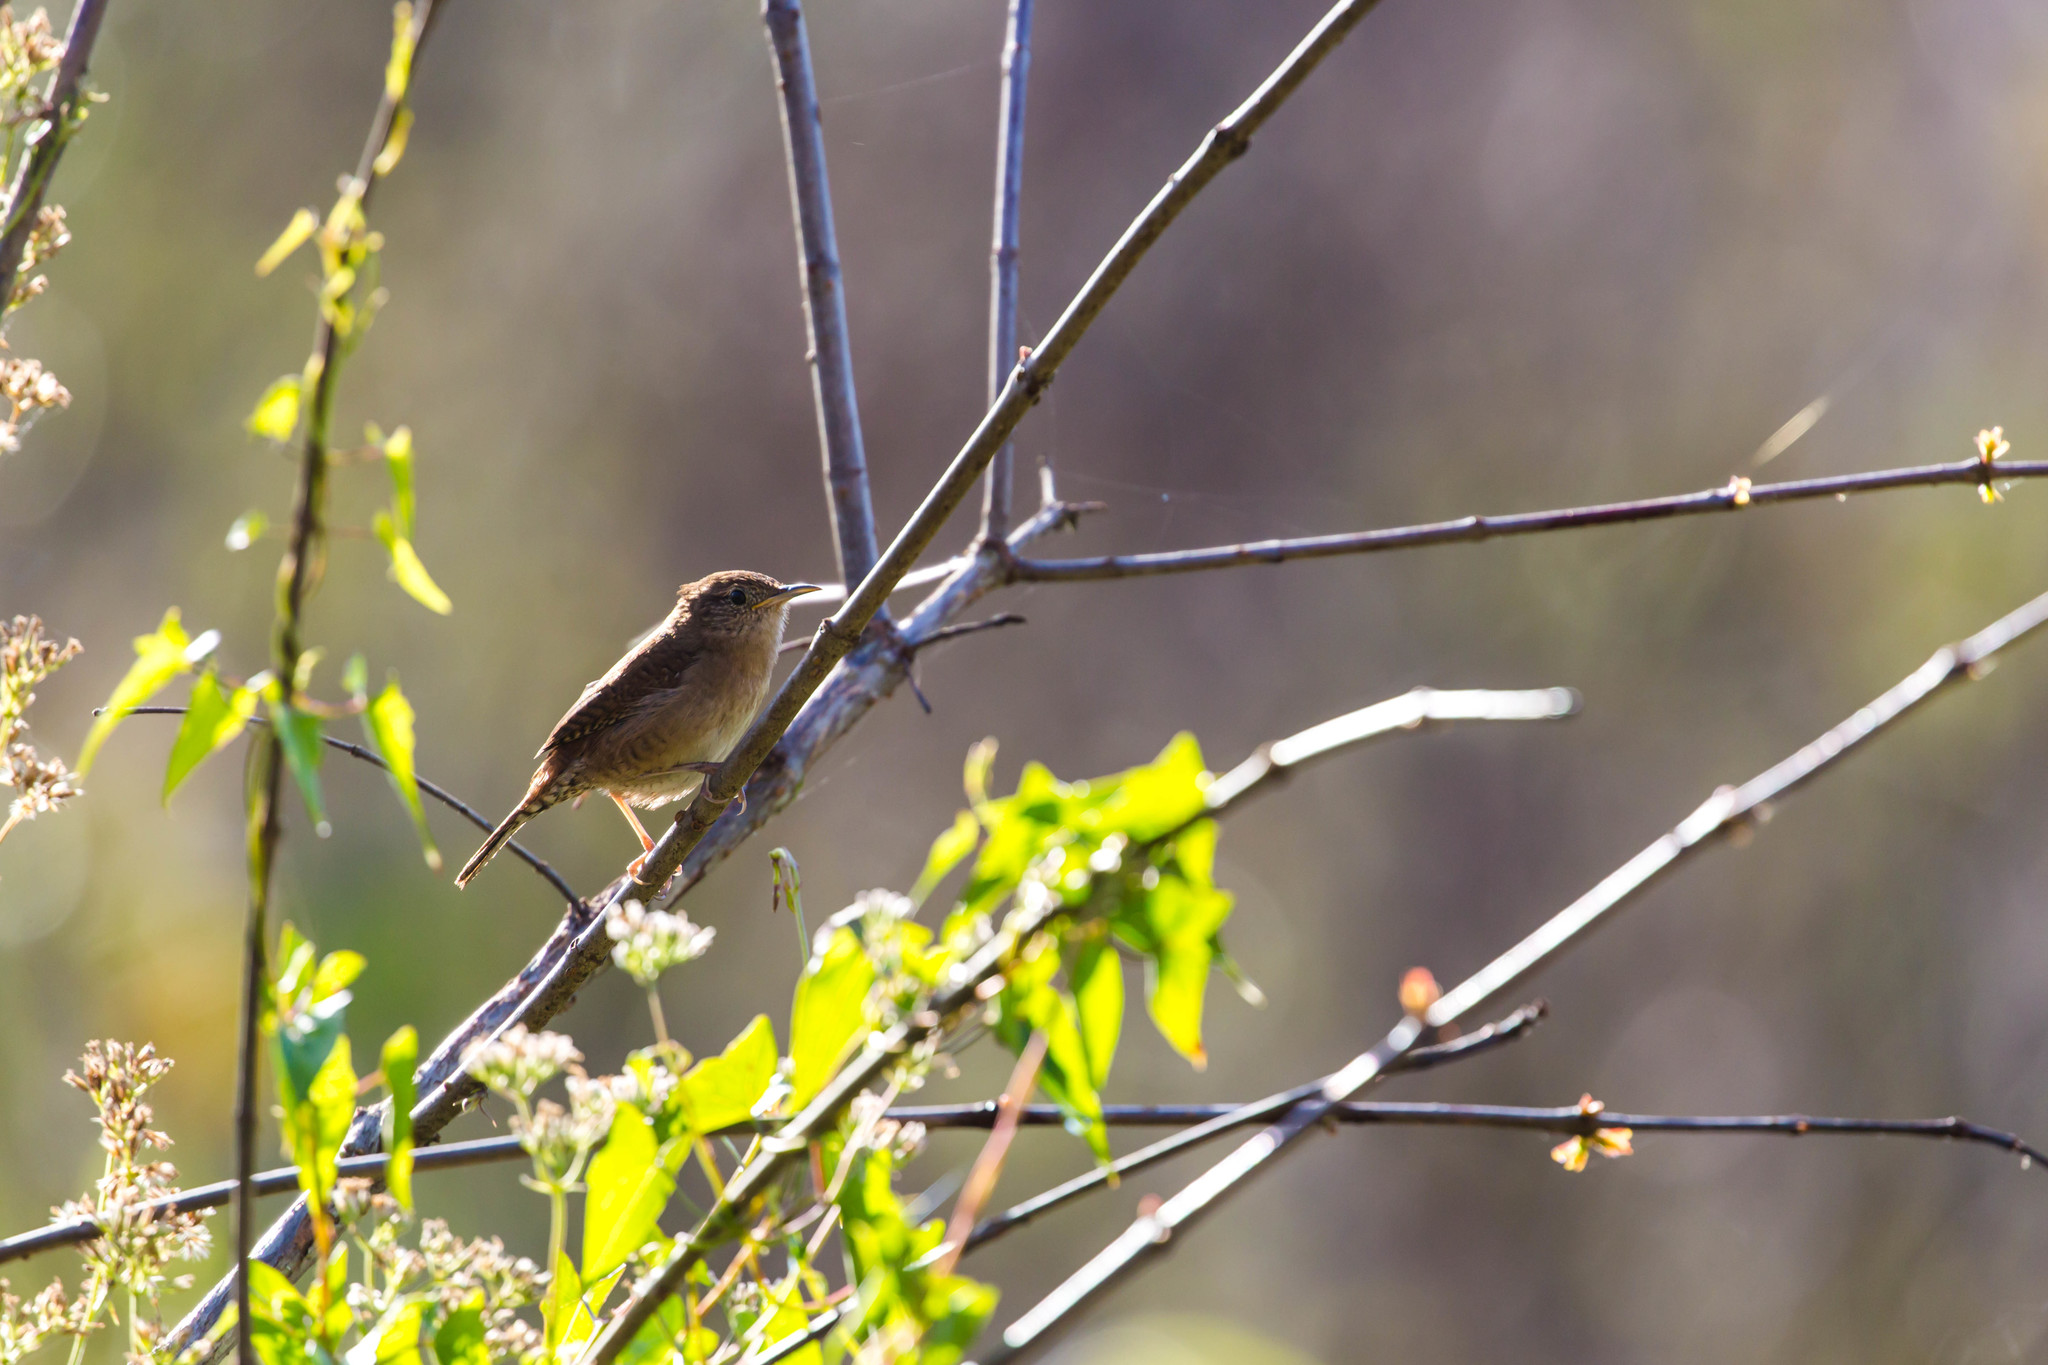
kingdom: Animalia
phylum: Chordata
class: Aves
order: Passeriformes
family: Troglodytidae
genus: Troglodytes
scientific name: Troglodytes aedon
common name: House wren
